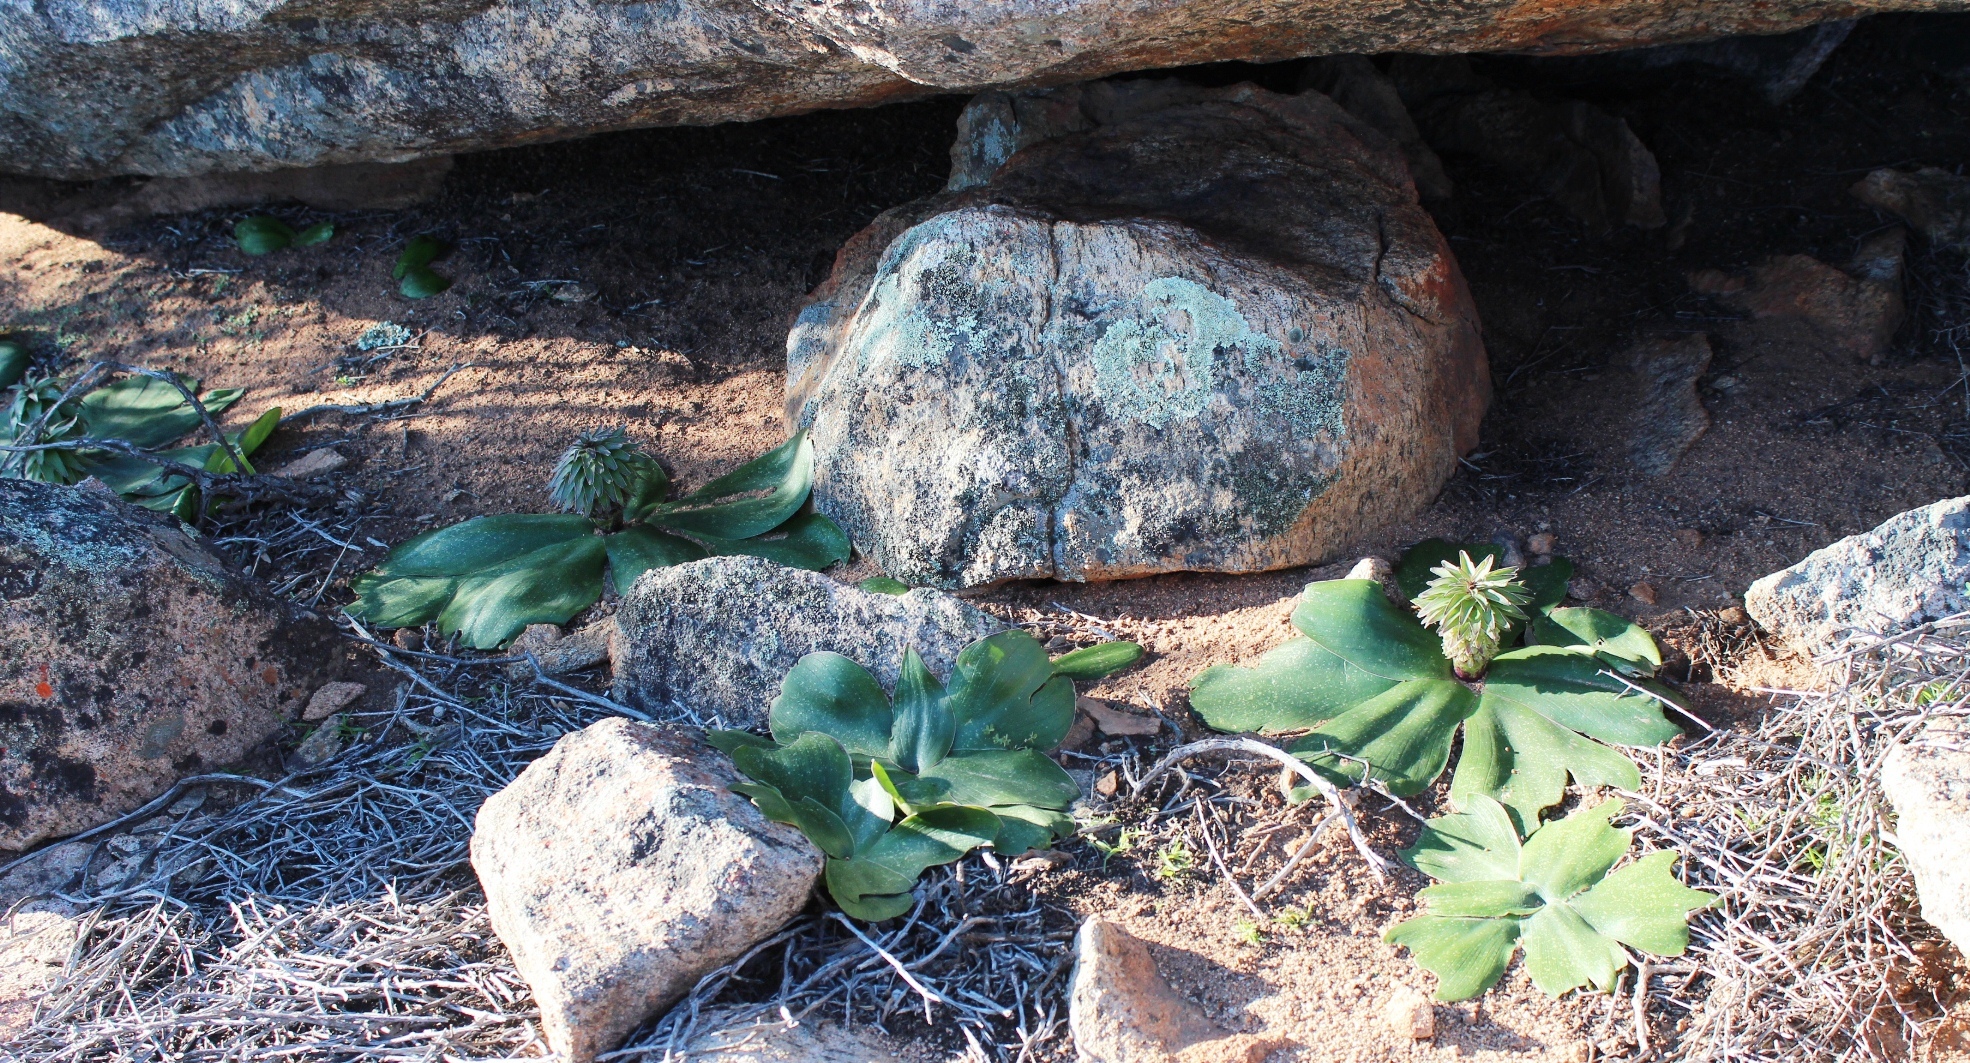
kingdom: Plantae
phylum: Tracheophyta
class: Liliopsida
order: Asparagales
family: Asparagaceae
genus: Eucomis
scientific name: Eucomis regia
